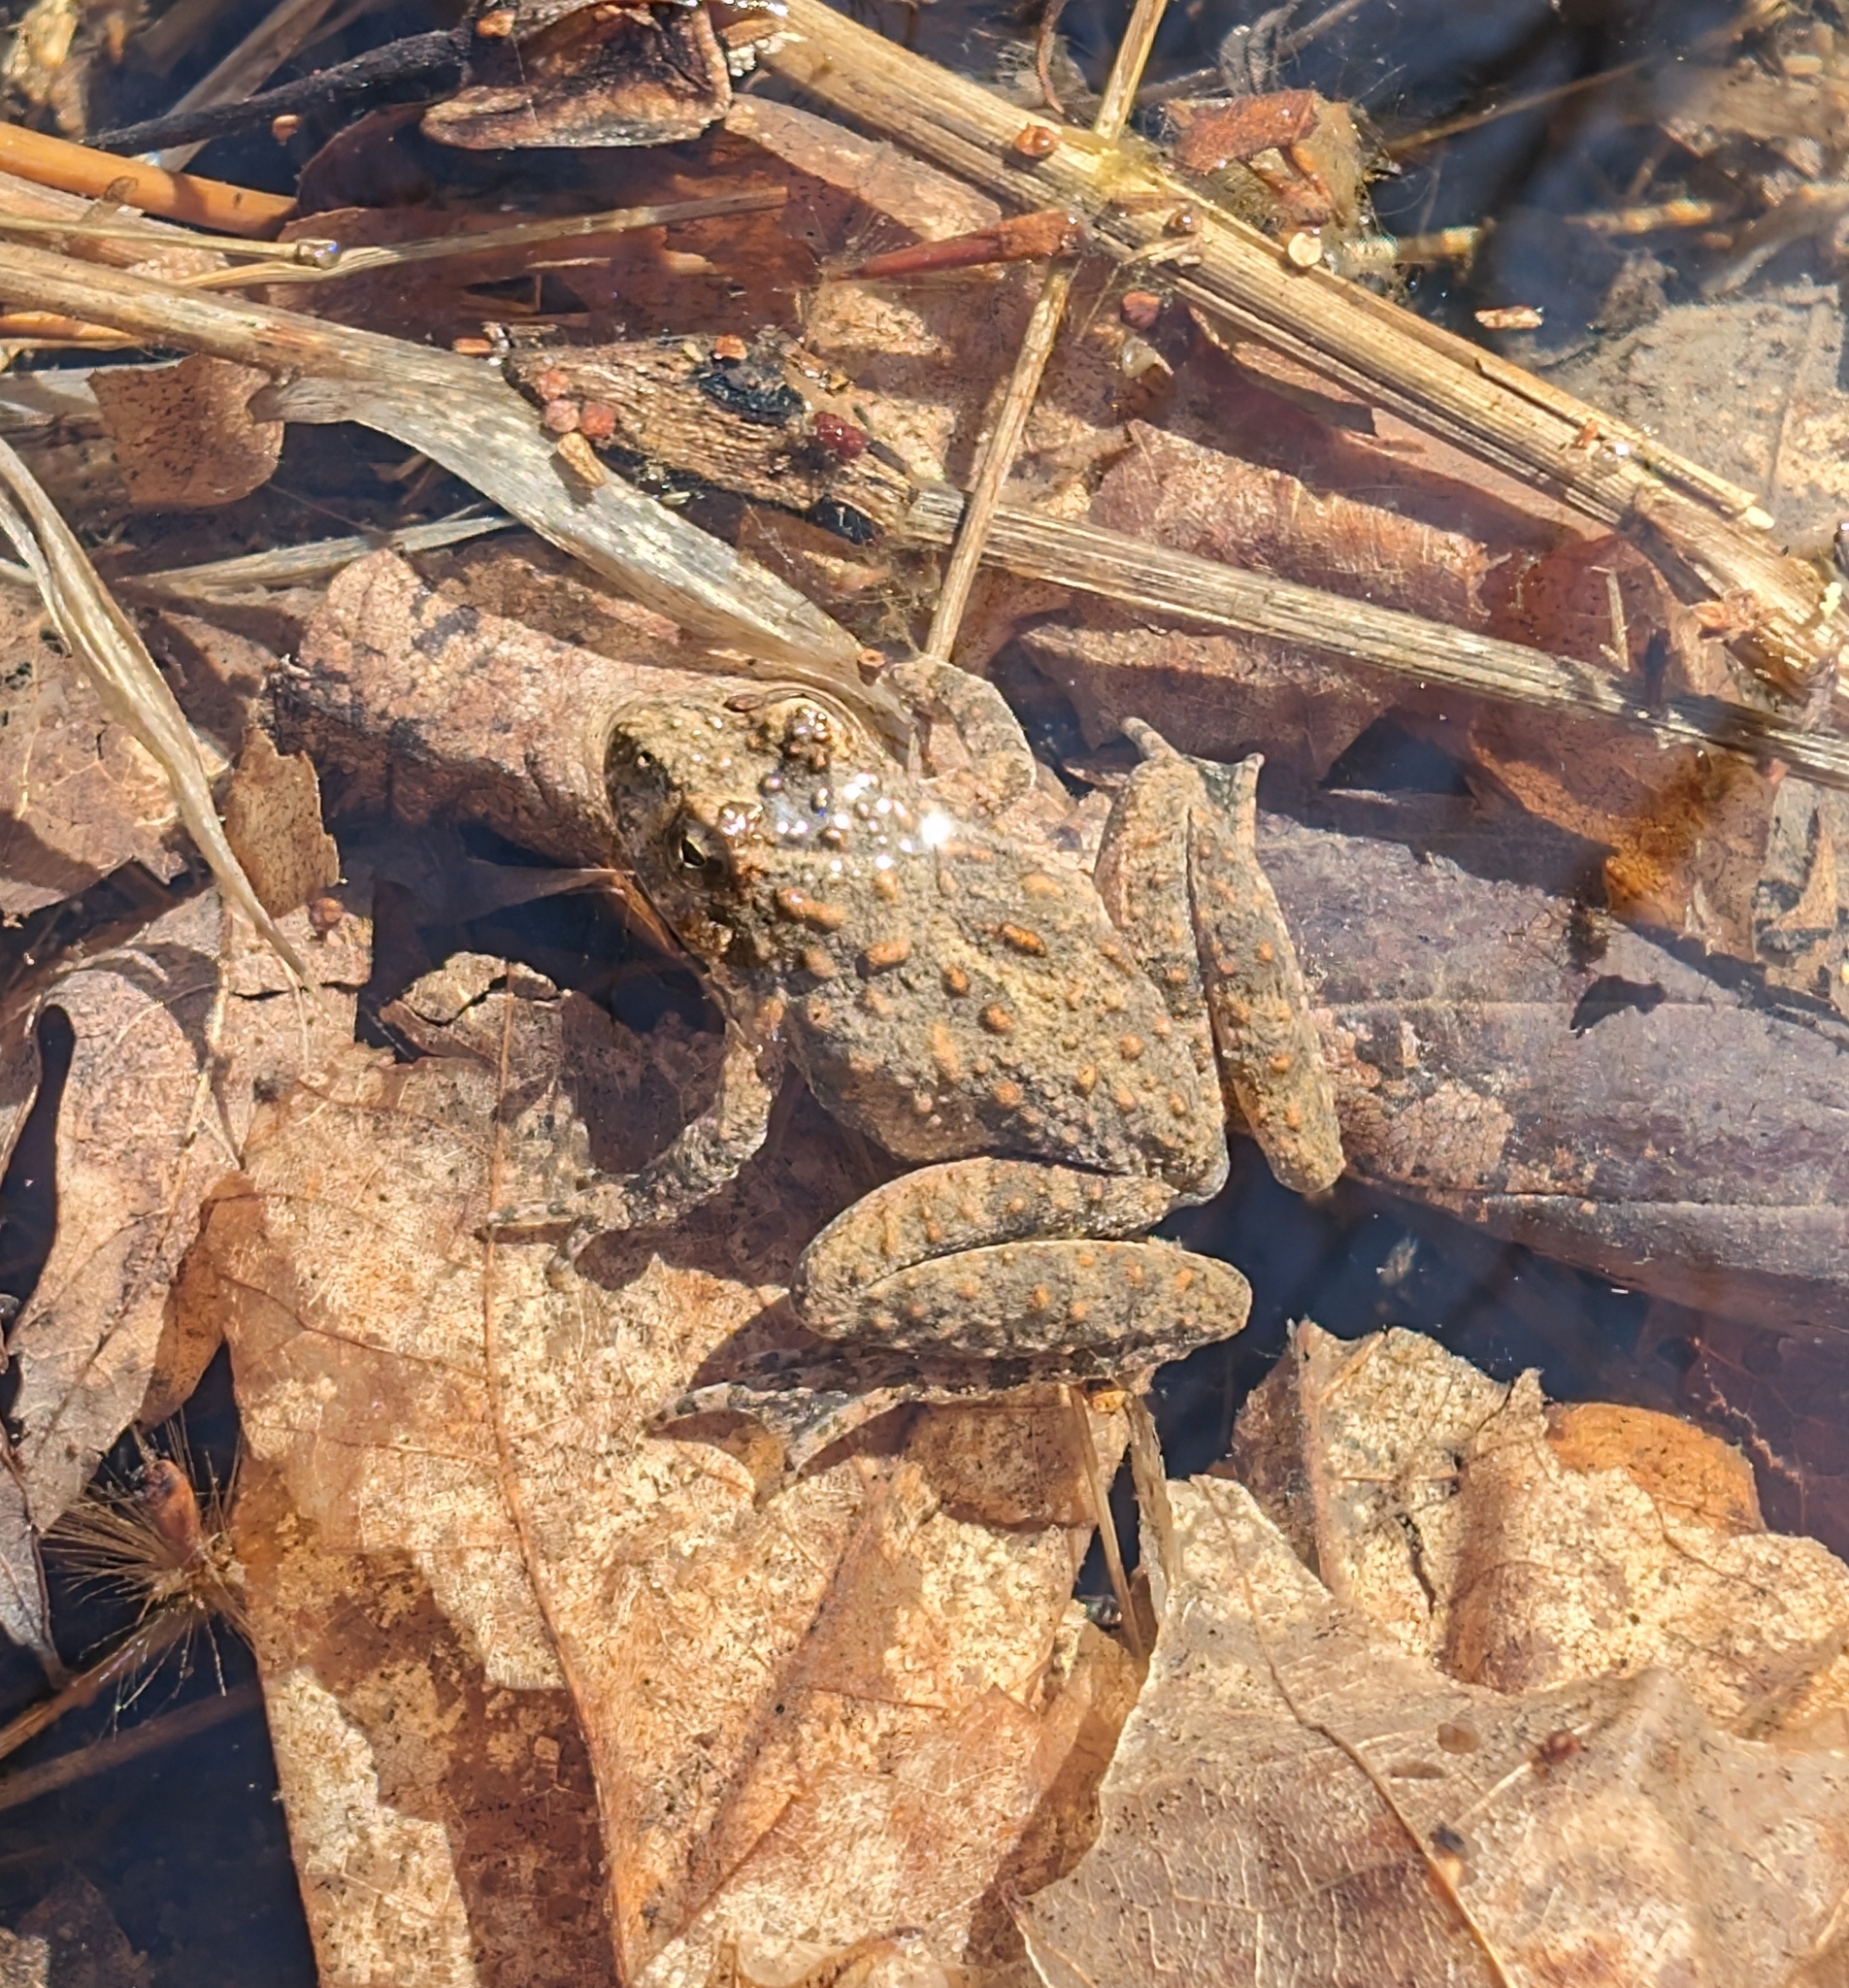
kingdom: Animalia
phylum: Chordata
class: Amphibia
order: Anura
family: Hylidae
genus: Acris
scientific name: Acris blanchardi
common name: Blanchard's cricket frog
